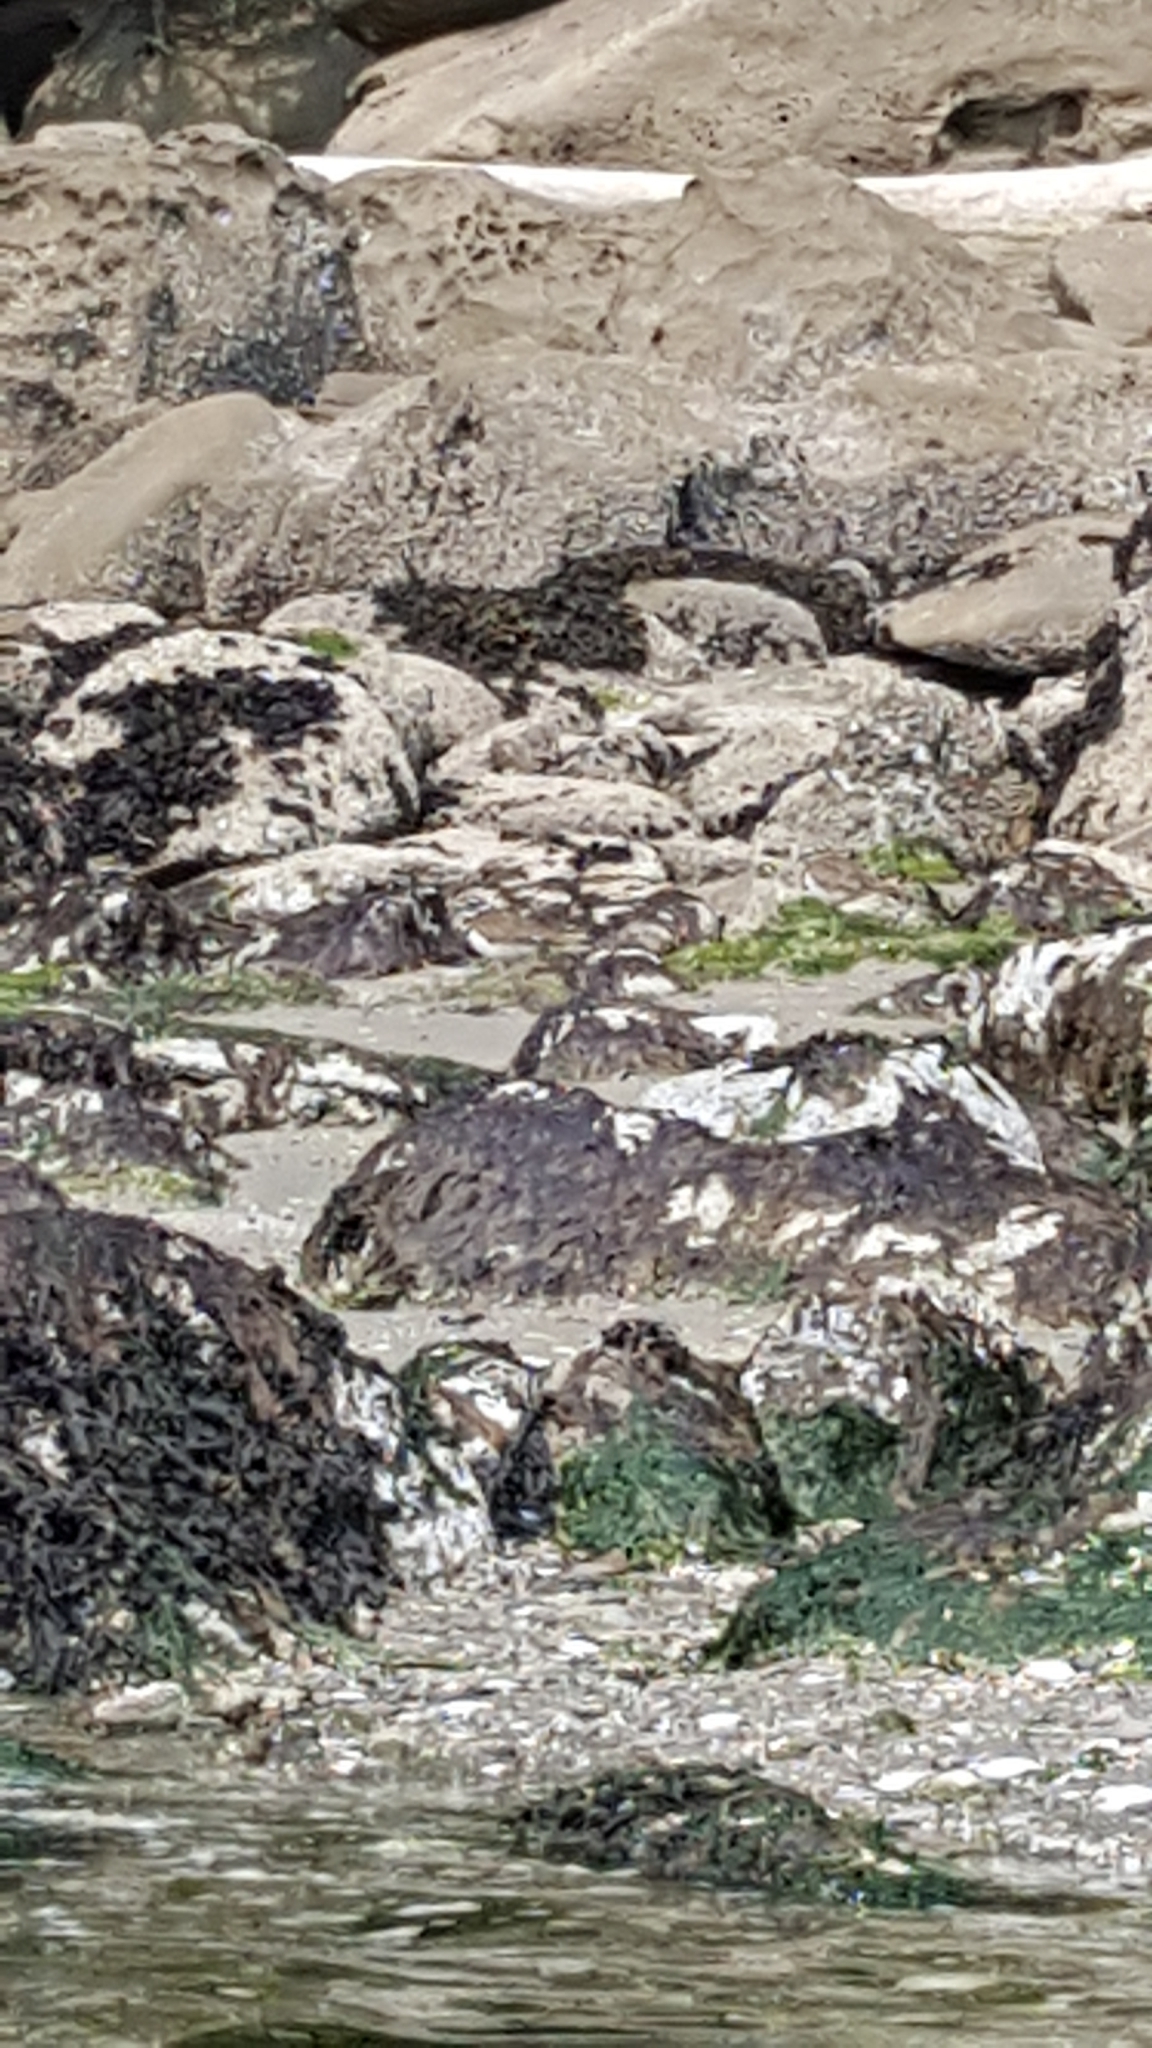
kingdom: Animalia
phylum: Chordata
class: Aves
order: Charadriiformes
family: Charadriidae
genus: Charadrius
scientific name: Charadrius vociferus
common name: Killdeer
